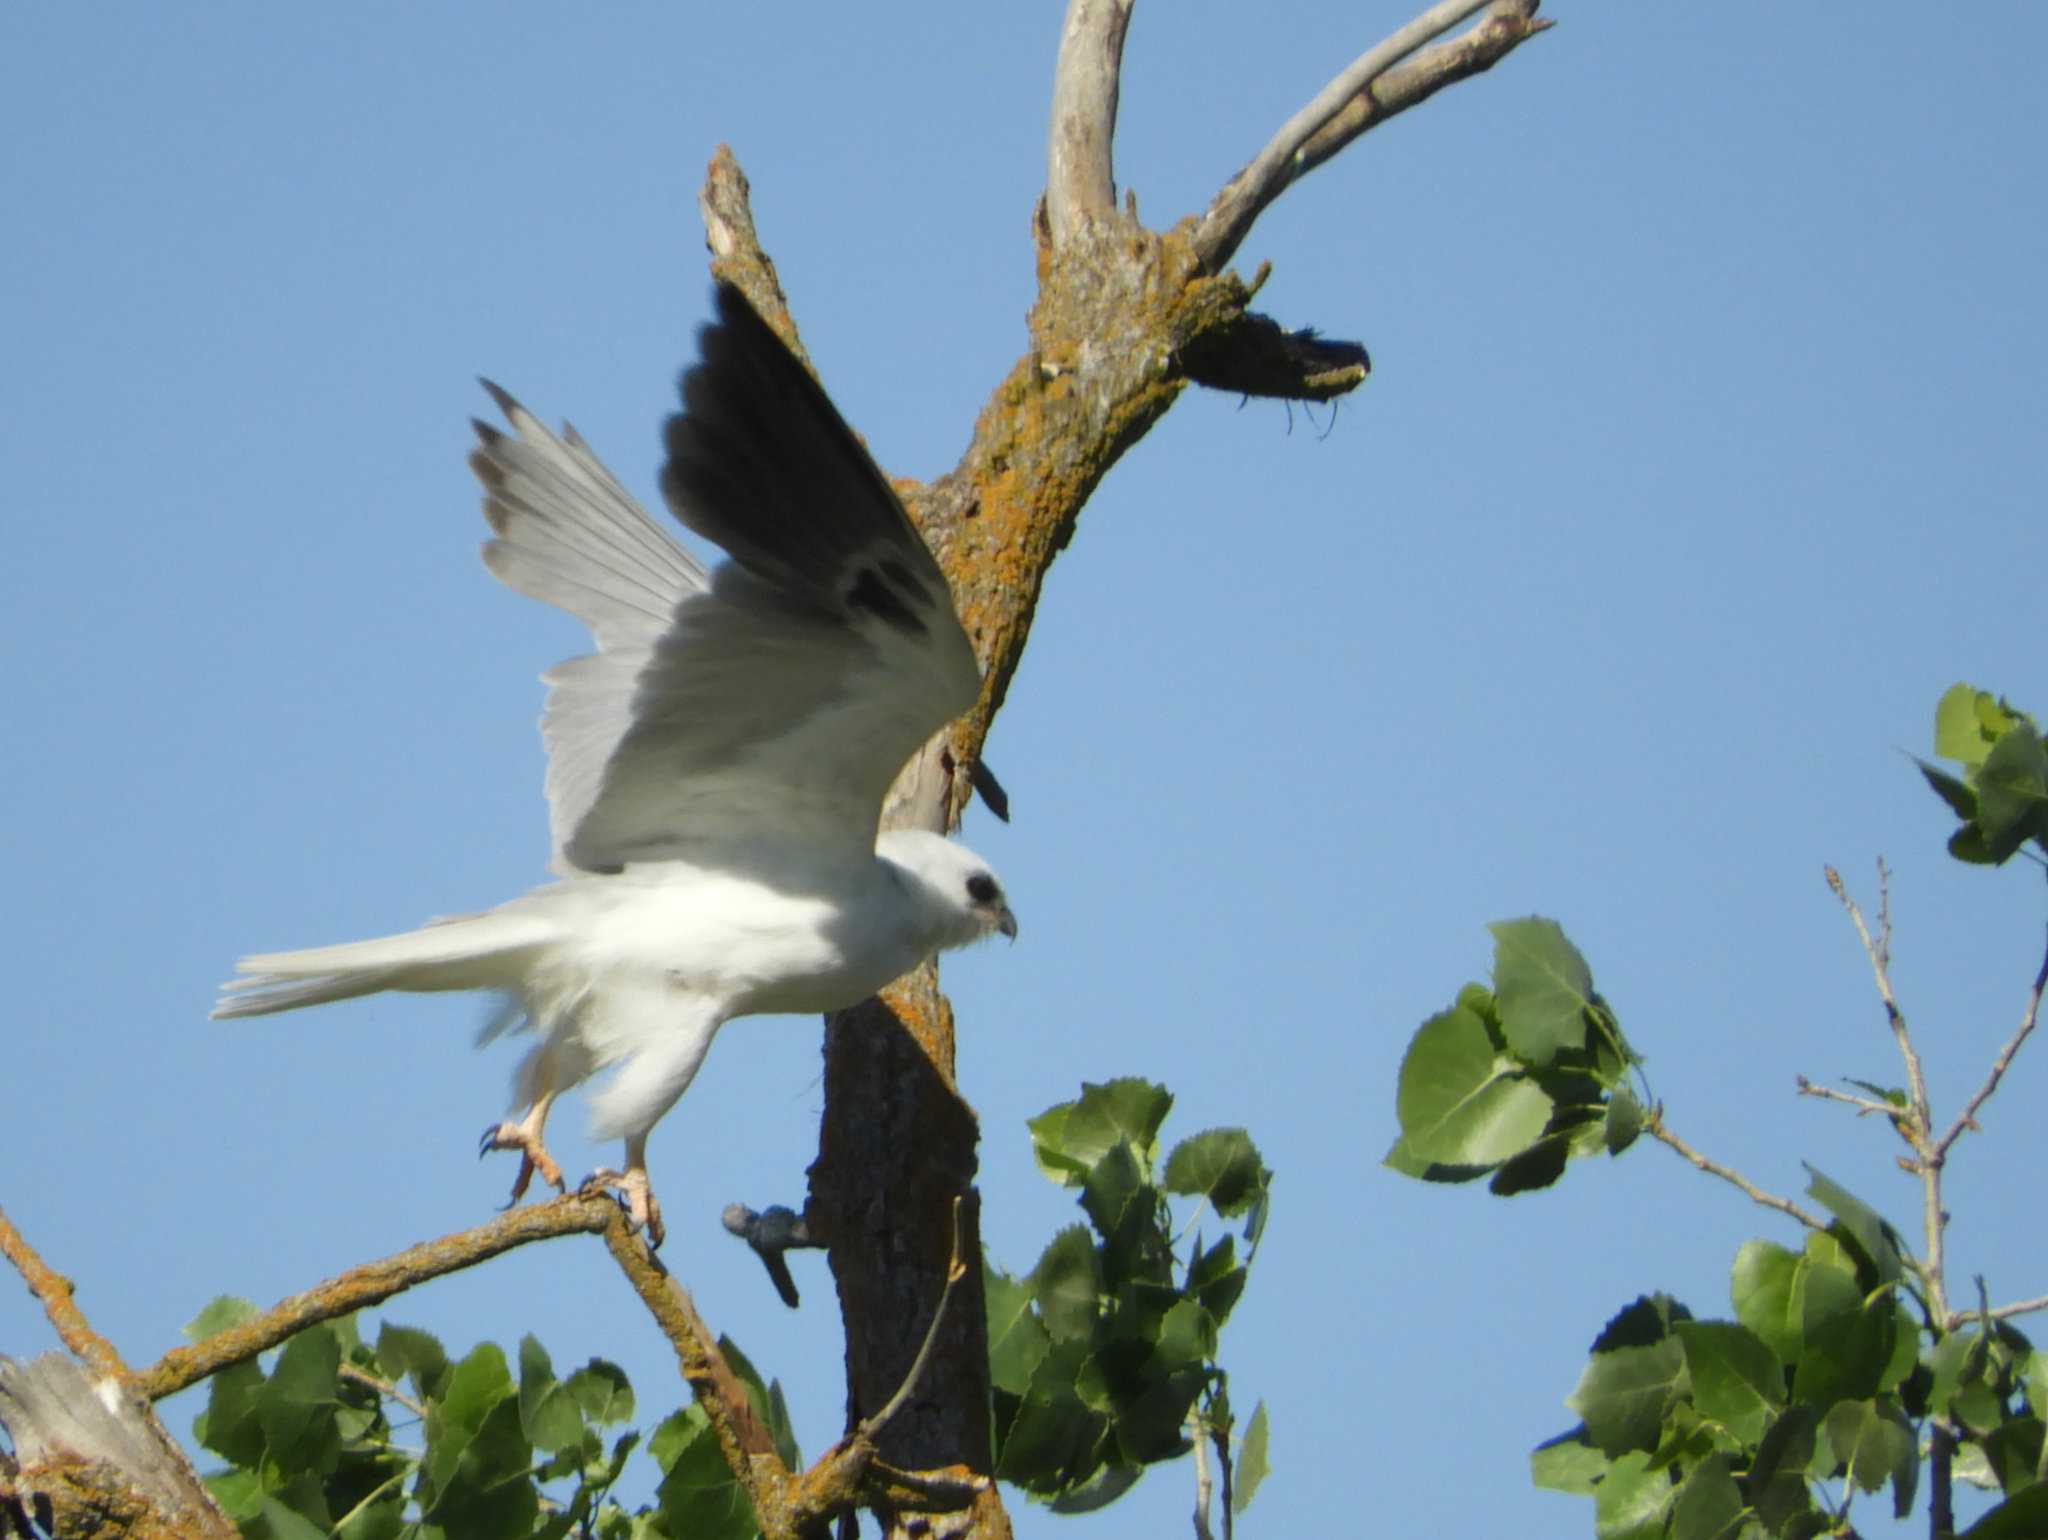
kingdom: Animalia
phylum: Chordata
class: Aves
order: Accipitriformes
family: Accipitridae
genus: Elanus
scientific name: Elanus leucurus
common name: White-tailed kite
